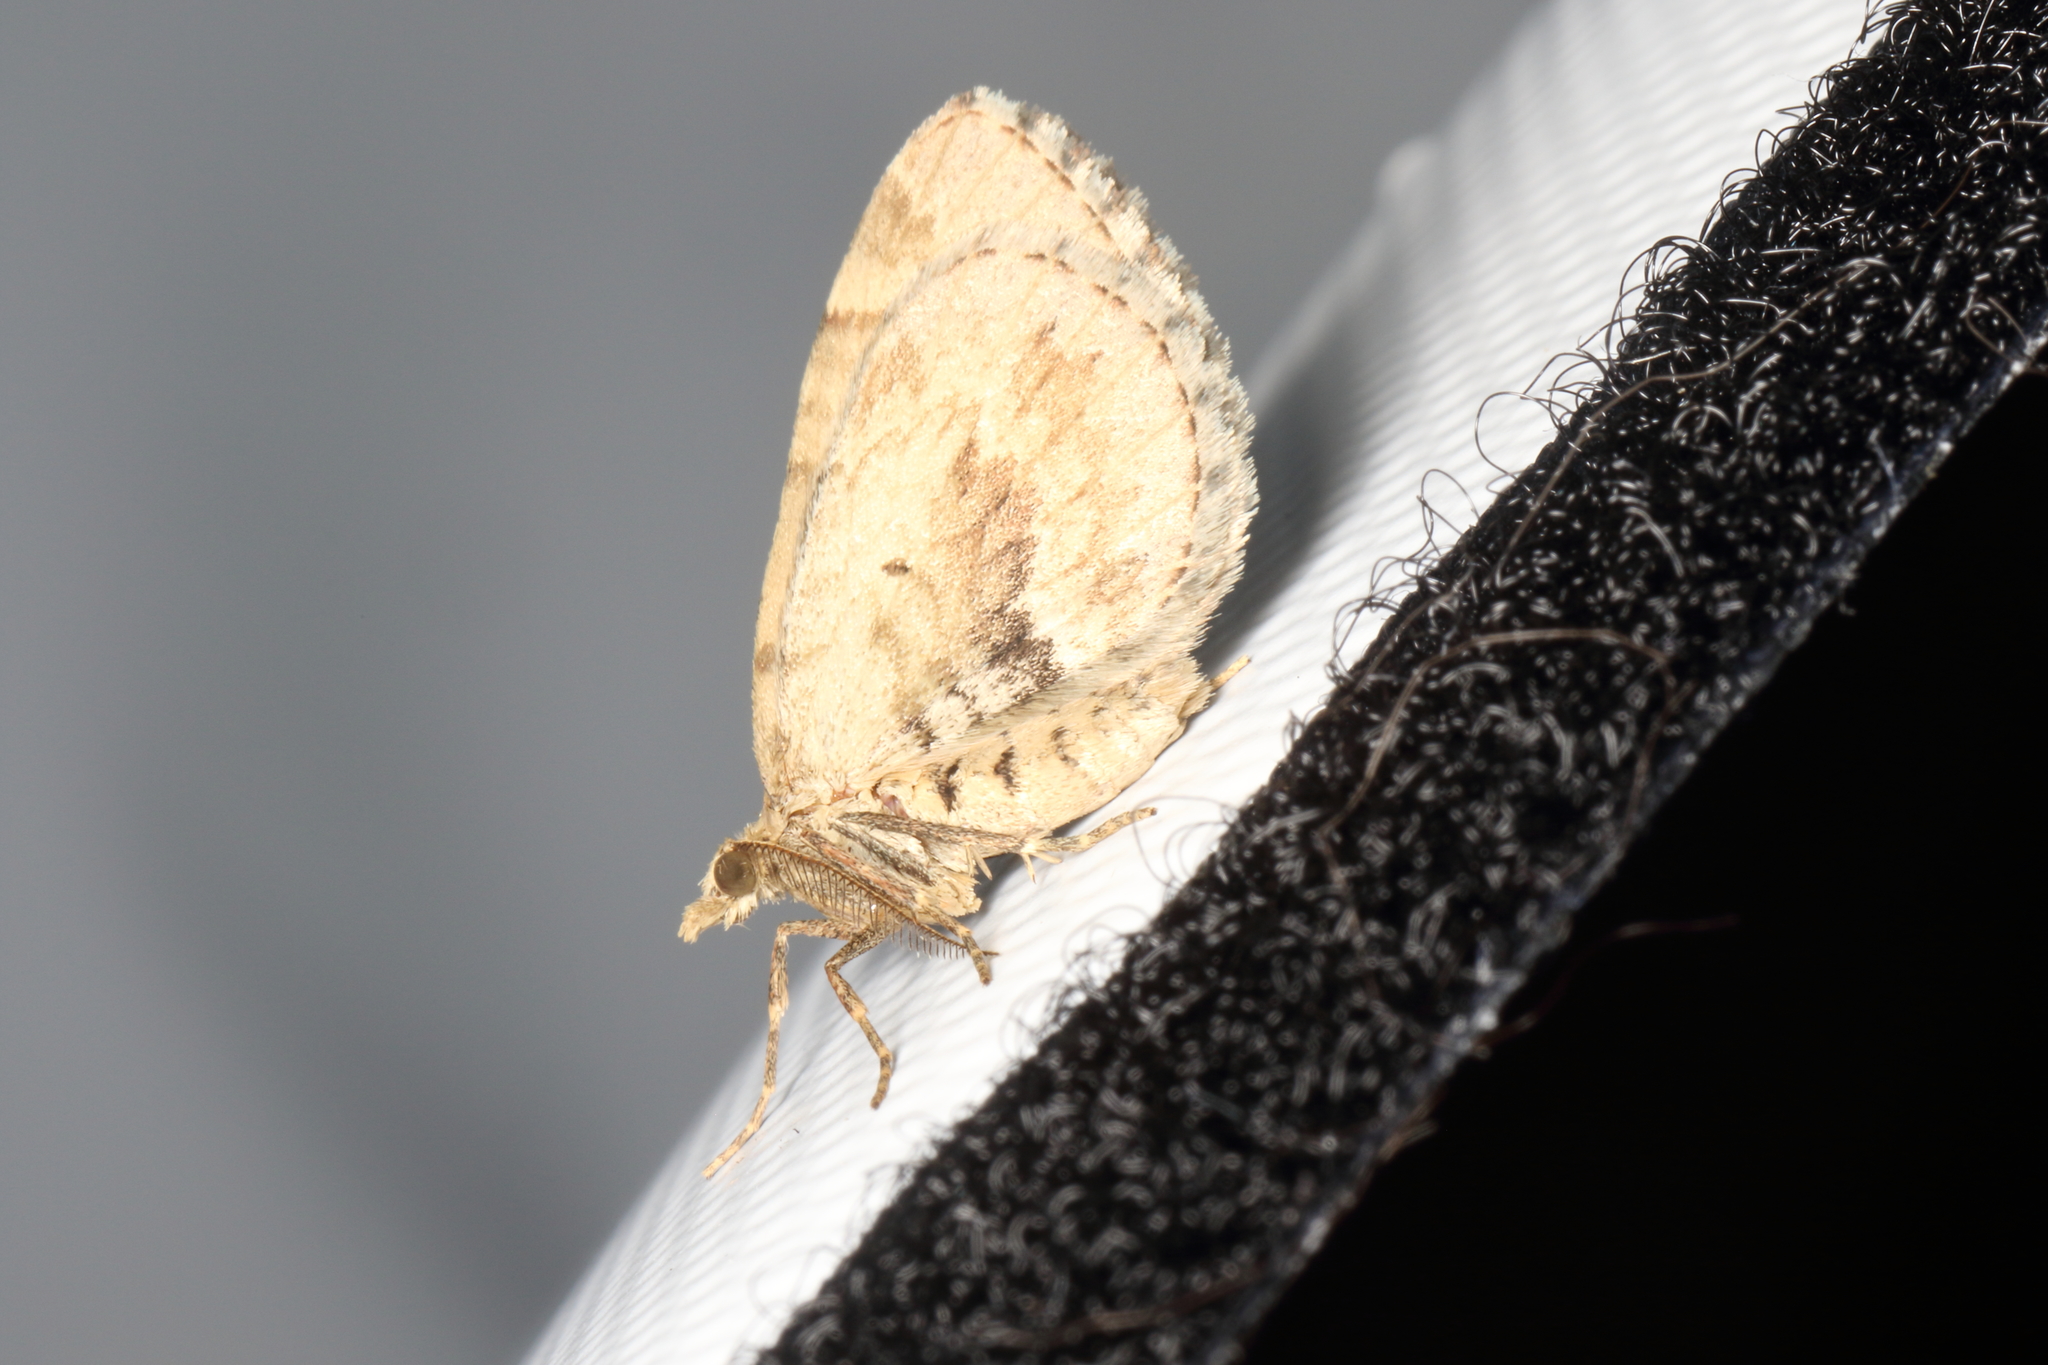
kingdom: Animalia
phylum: Arthropoda
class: Insecta
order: Lepidoptera
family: Geometridae
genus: Asaphodes
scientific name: Asaphodes aegrota
